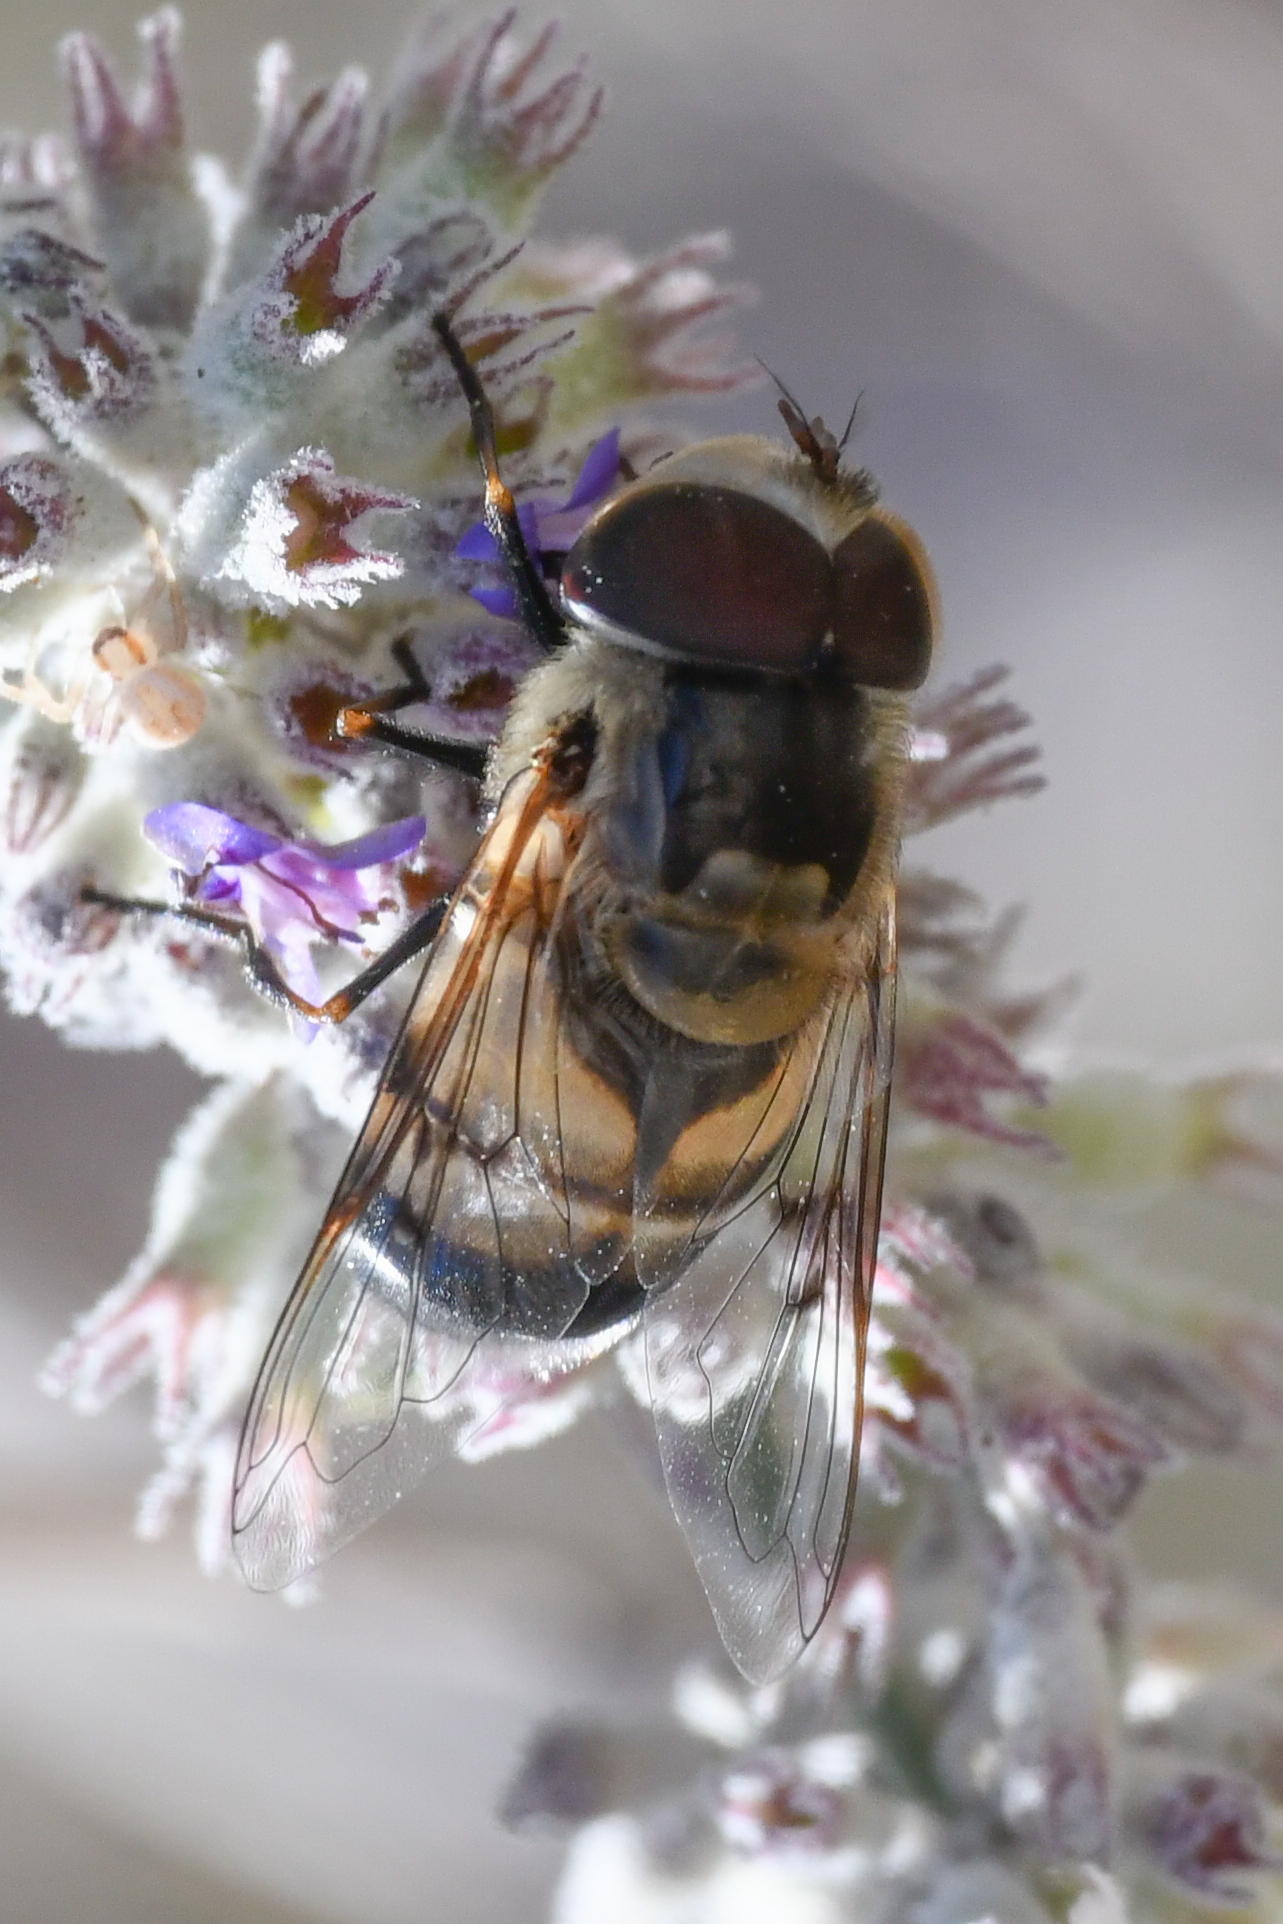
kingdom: Animalia
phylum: Arthropoda
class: Insecta
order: Diptera
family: Syrphidae
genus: Copestylum
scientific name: Copestylum apiciferum
